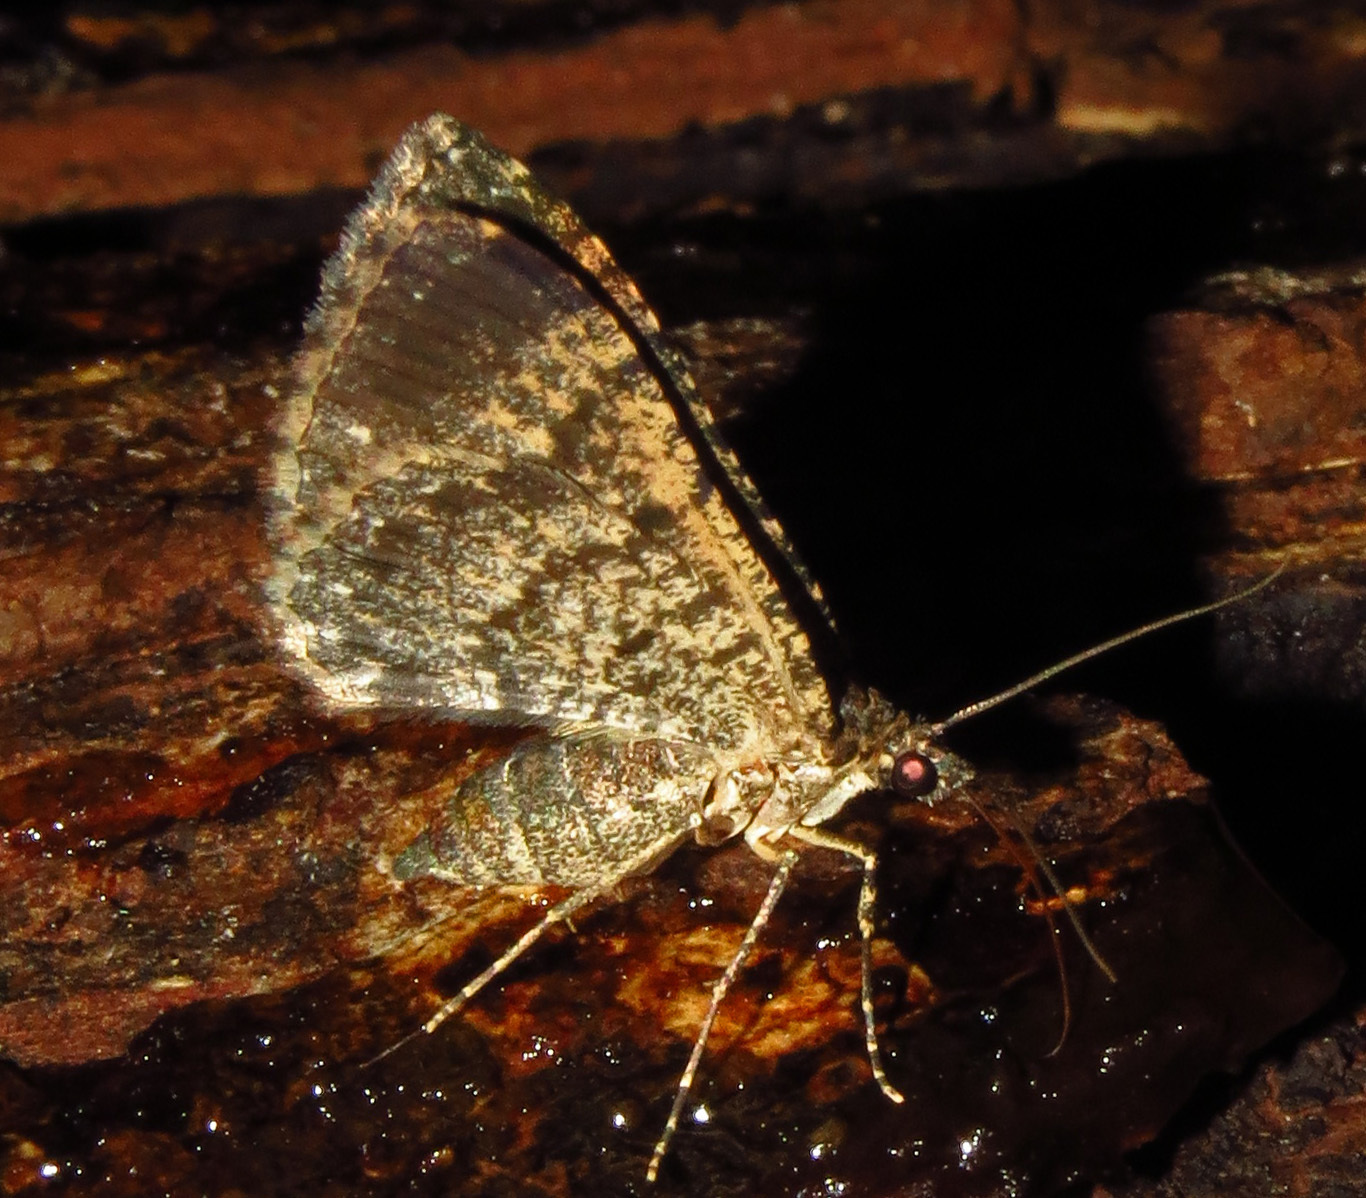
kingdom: Animalia
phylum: Arthropoda
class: Insecta
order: Lepidoptera
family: Geometridae
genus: Disclisioprocta
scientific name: Disclisioprocta stellata
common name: Somber carpet
